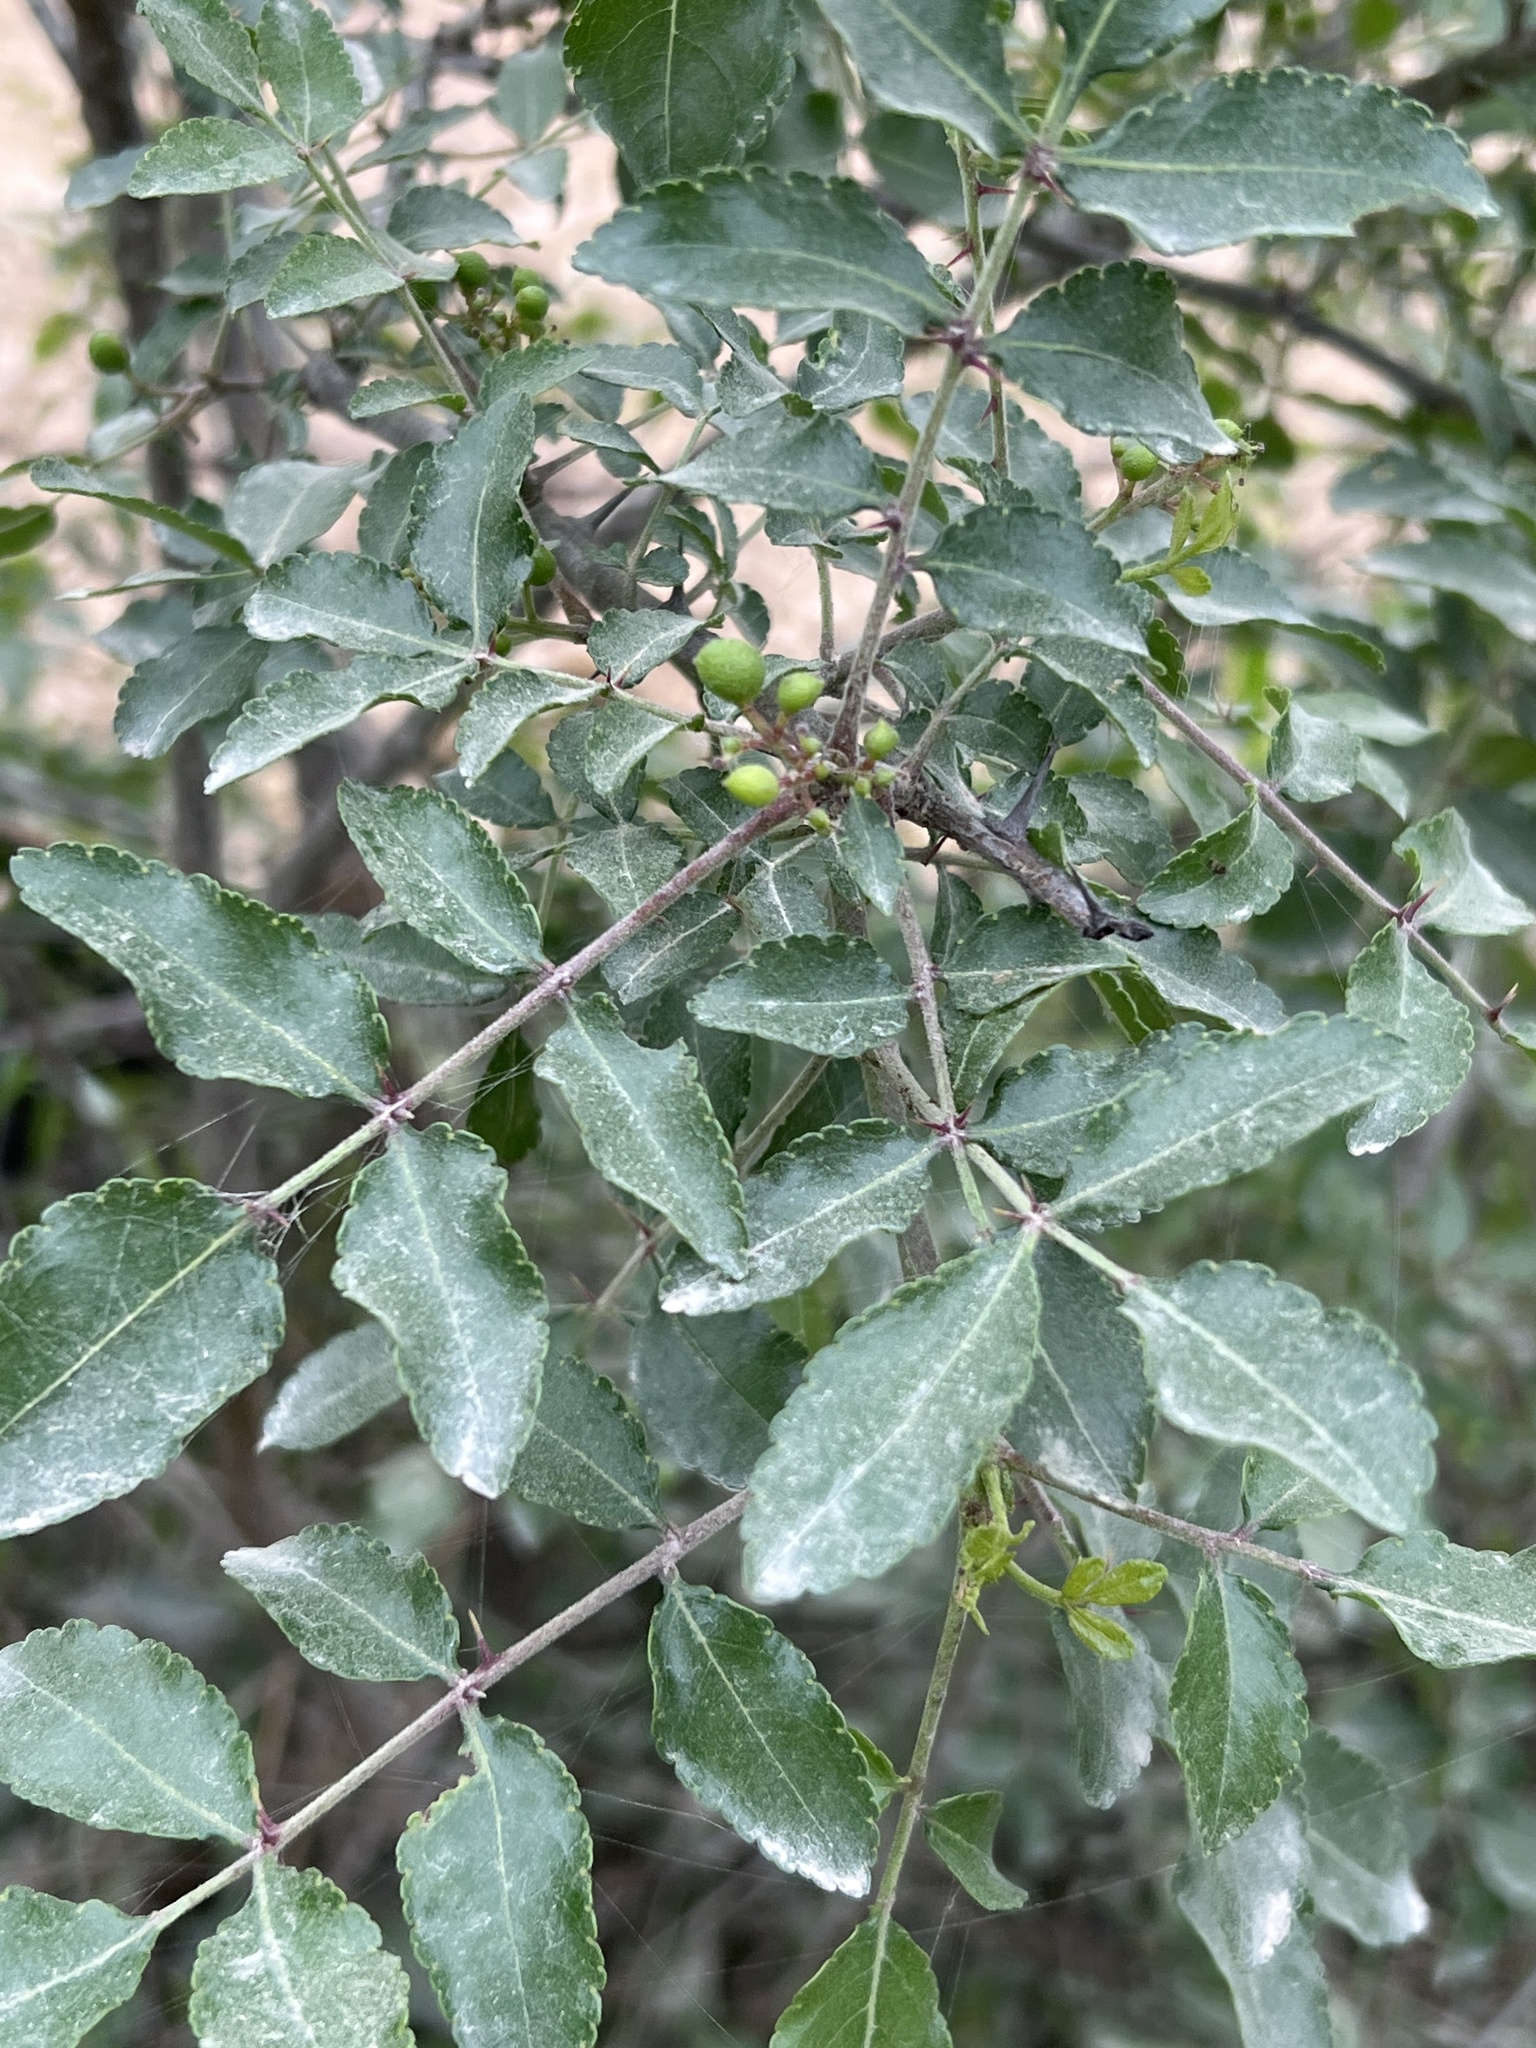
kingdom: Plantae
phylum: Tracheophyta
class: Magnoliopsida
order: Sapindales
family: Rutaceae
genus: Zanthoxylum
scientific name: Zanthoxylum clava-herculis
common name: Hercules'-club
